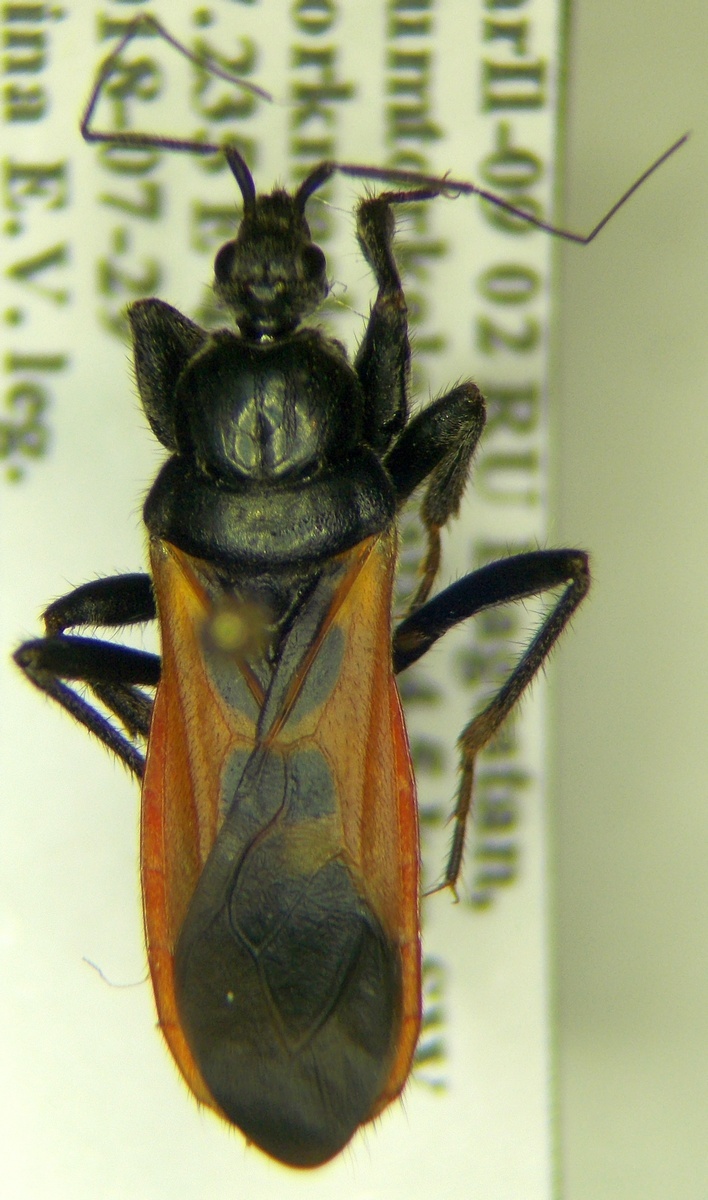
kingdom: Animalia
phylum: Arthropoda
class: Insecta
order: Hemiptera
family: Reduviidae
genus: Peirates
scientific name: Peirates hybridus
